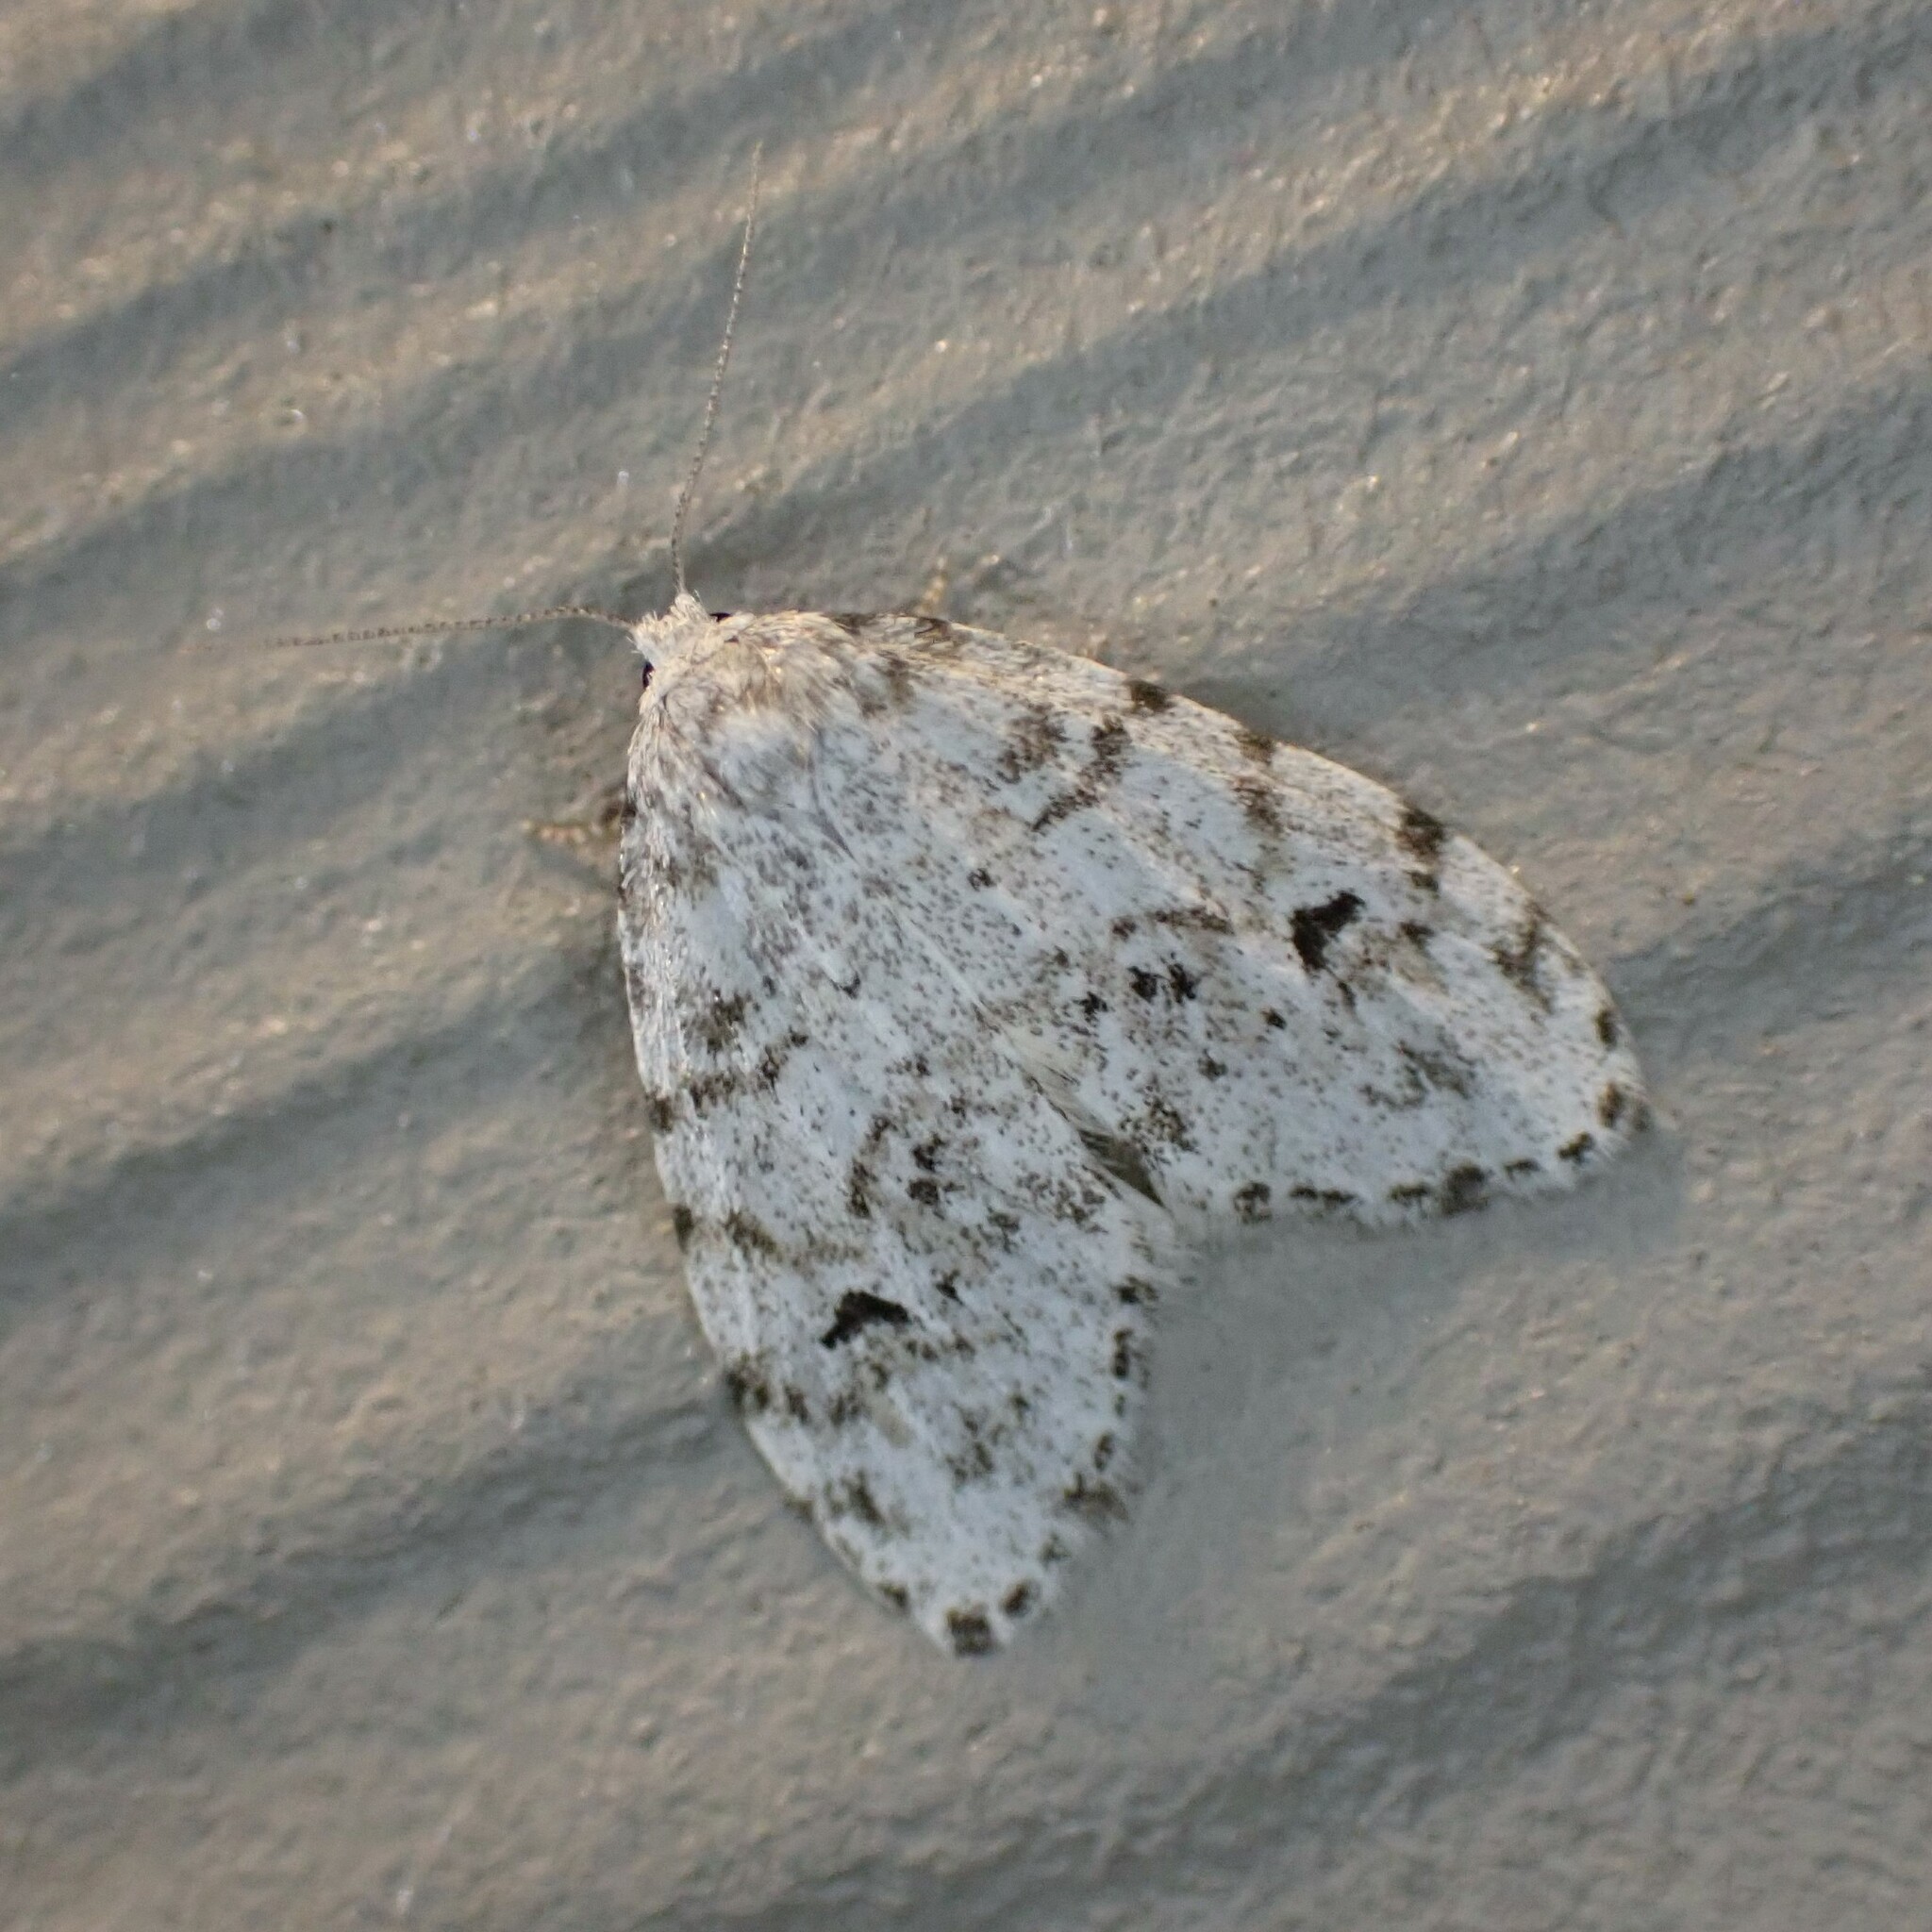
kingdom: Animalia
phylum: Arthropoda
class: Insecta
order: Lepidoptera
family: Erebidae
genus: Clemensia
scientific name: Clemensia umbrata
